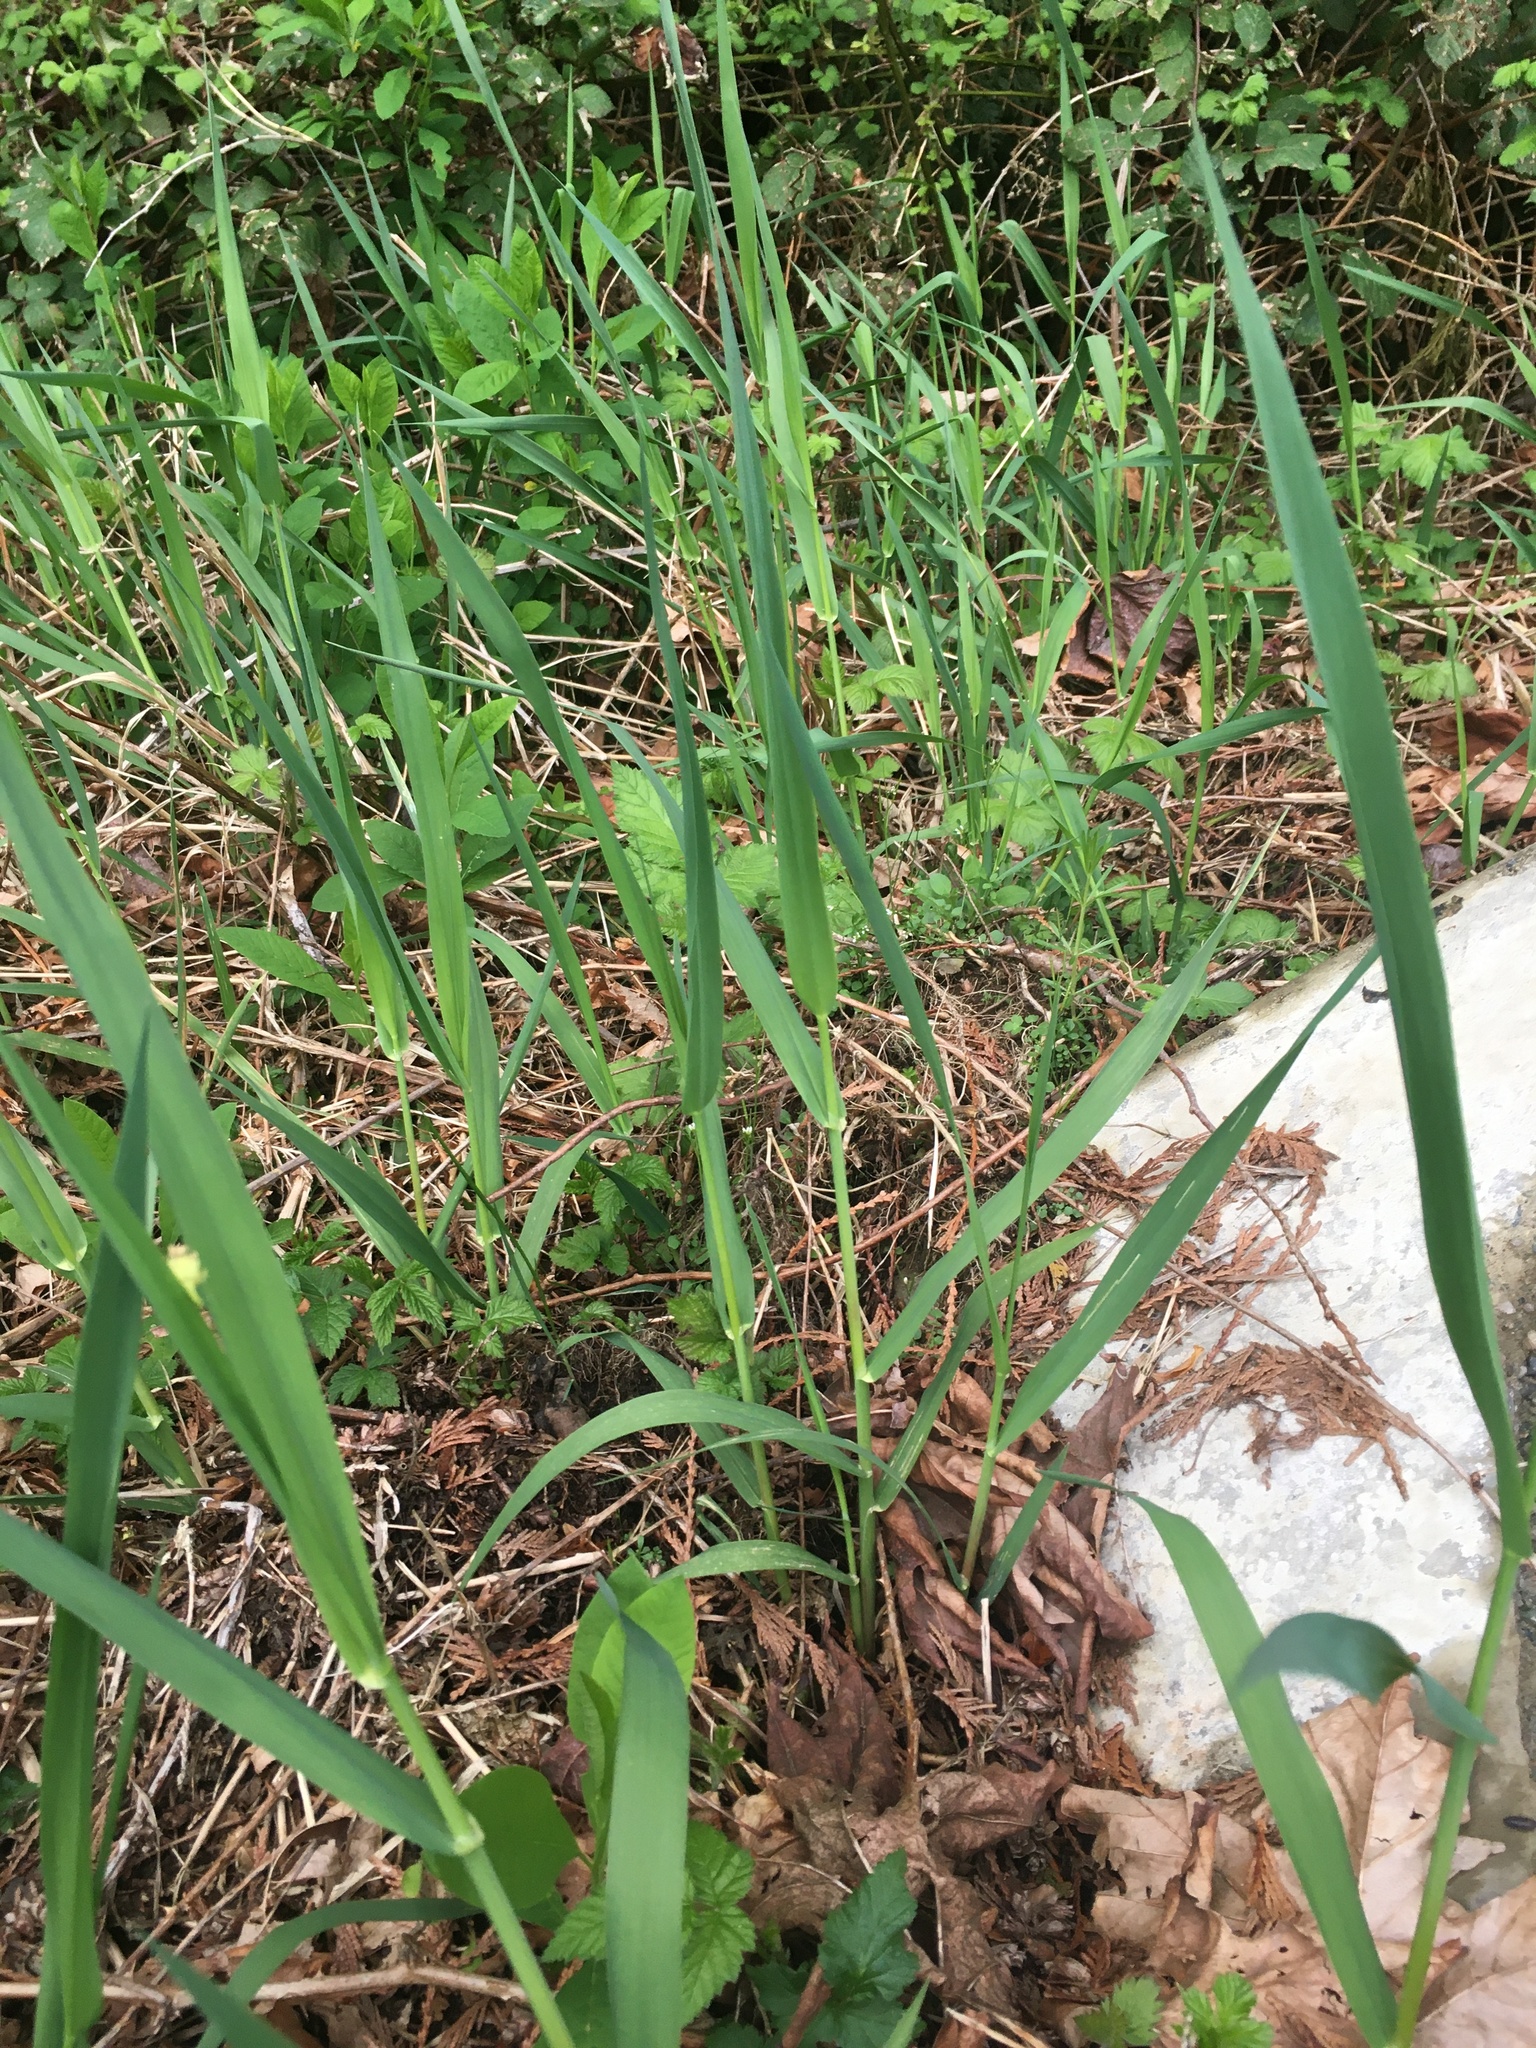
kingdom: Plantae
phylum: Tracheophyta
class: Liliopsida
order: Poales
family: Poaceae
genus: Phalaris
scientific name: Phalaris arundinacea
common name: Reed canary-grass
